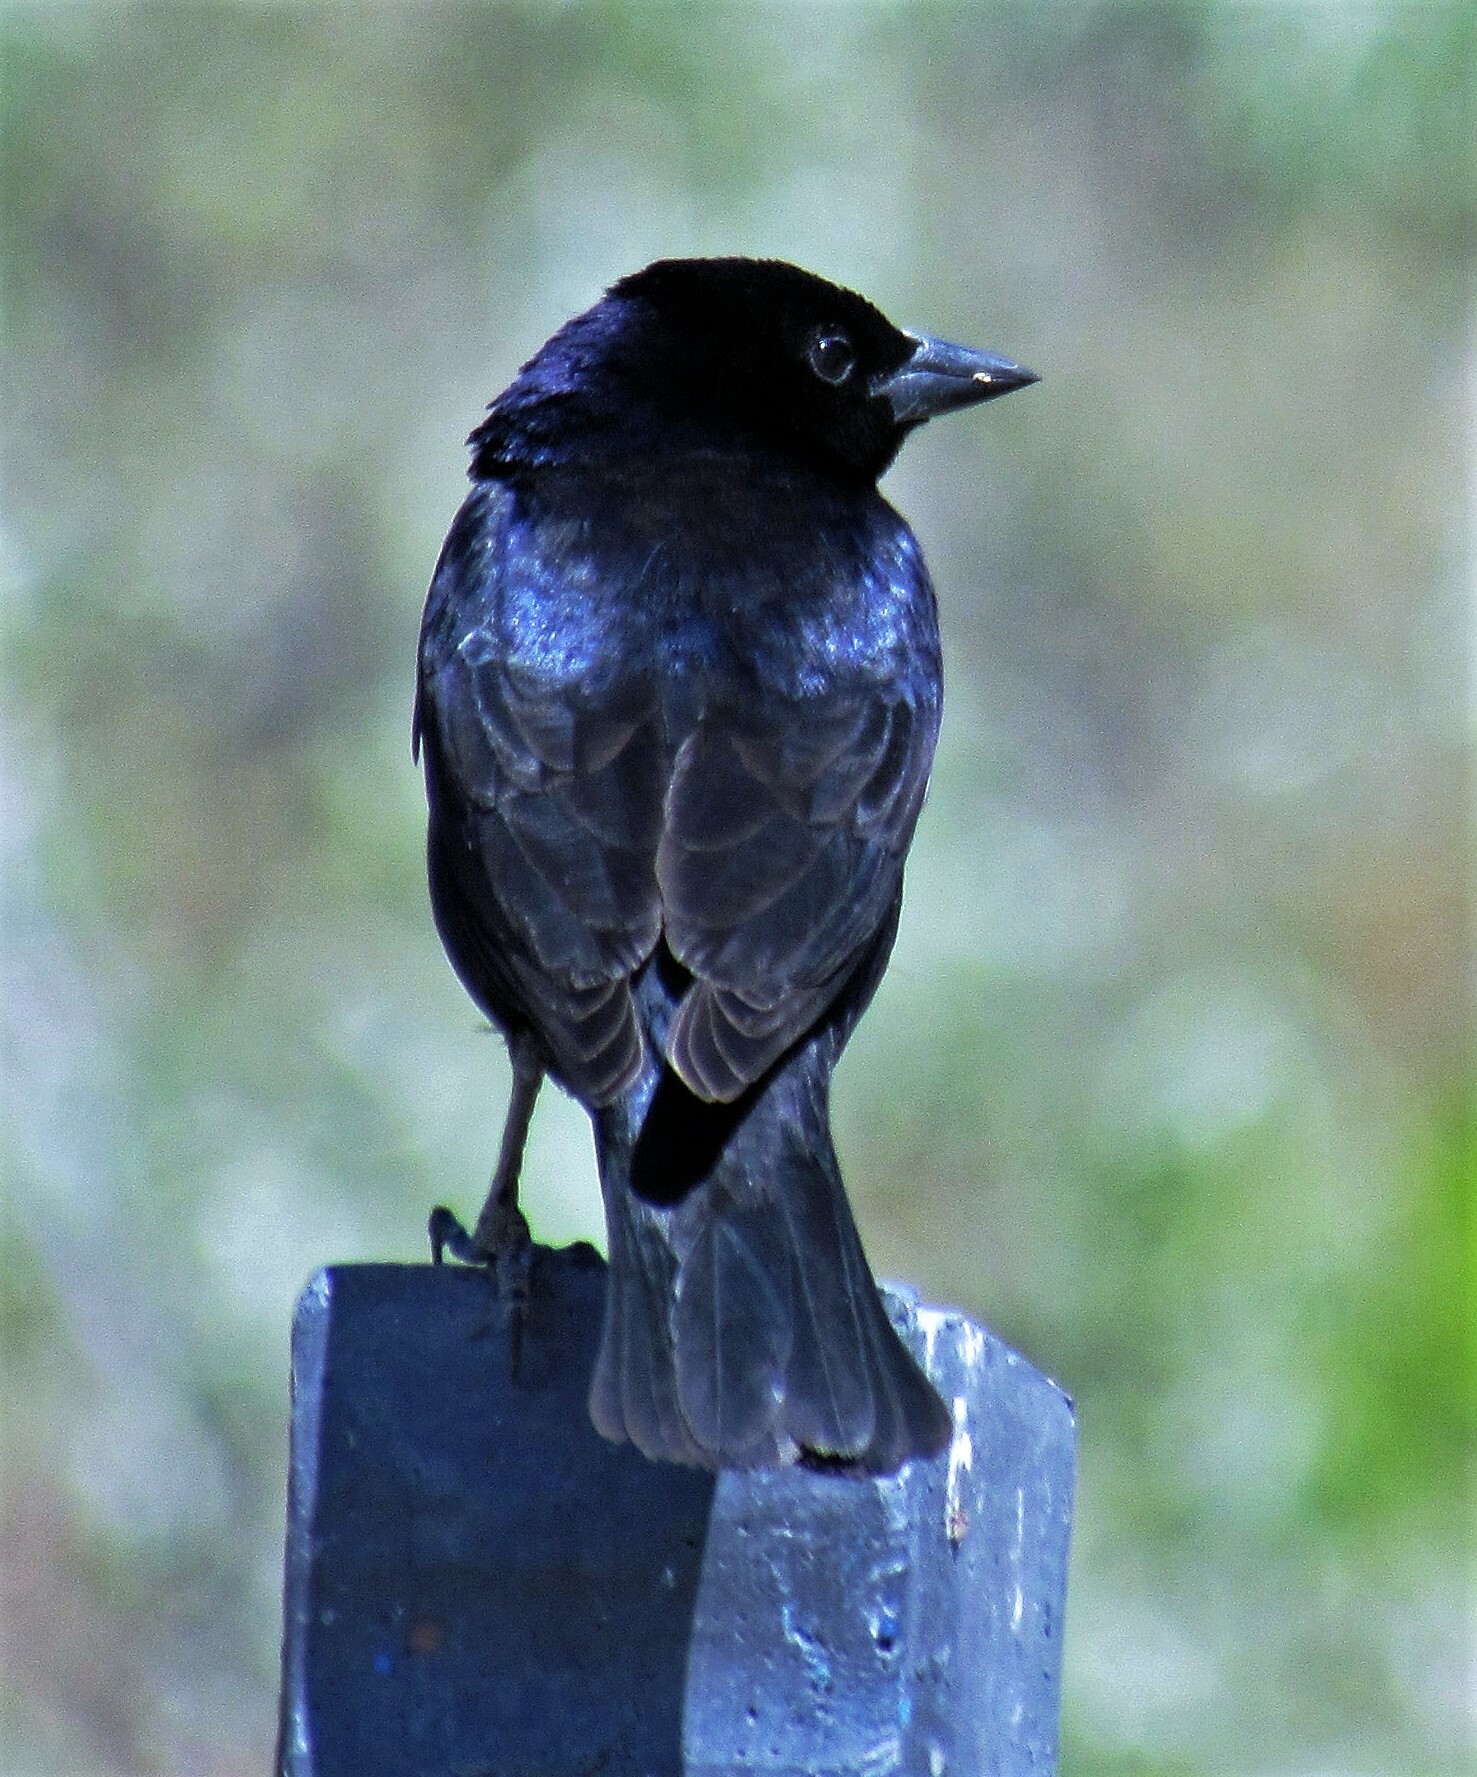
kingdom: Animalia
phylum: Chordata
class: Aves
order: Passeriformes
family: Icteridae
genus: Molothrus
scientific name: Molothrus bonariensis
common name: Shiny cowbird
